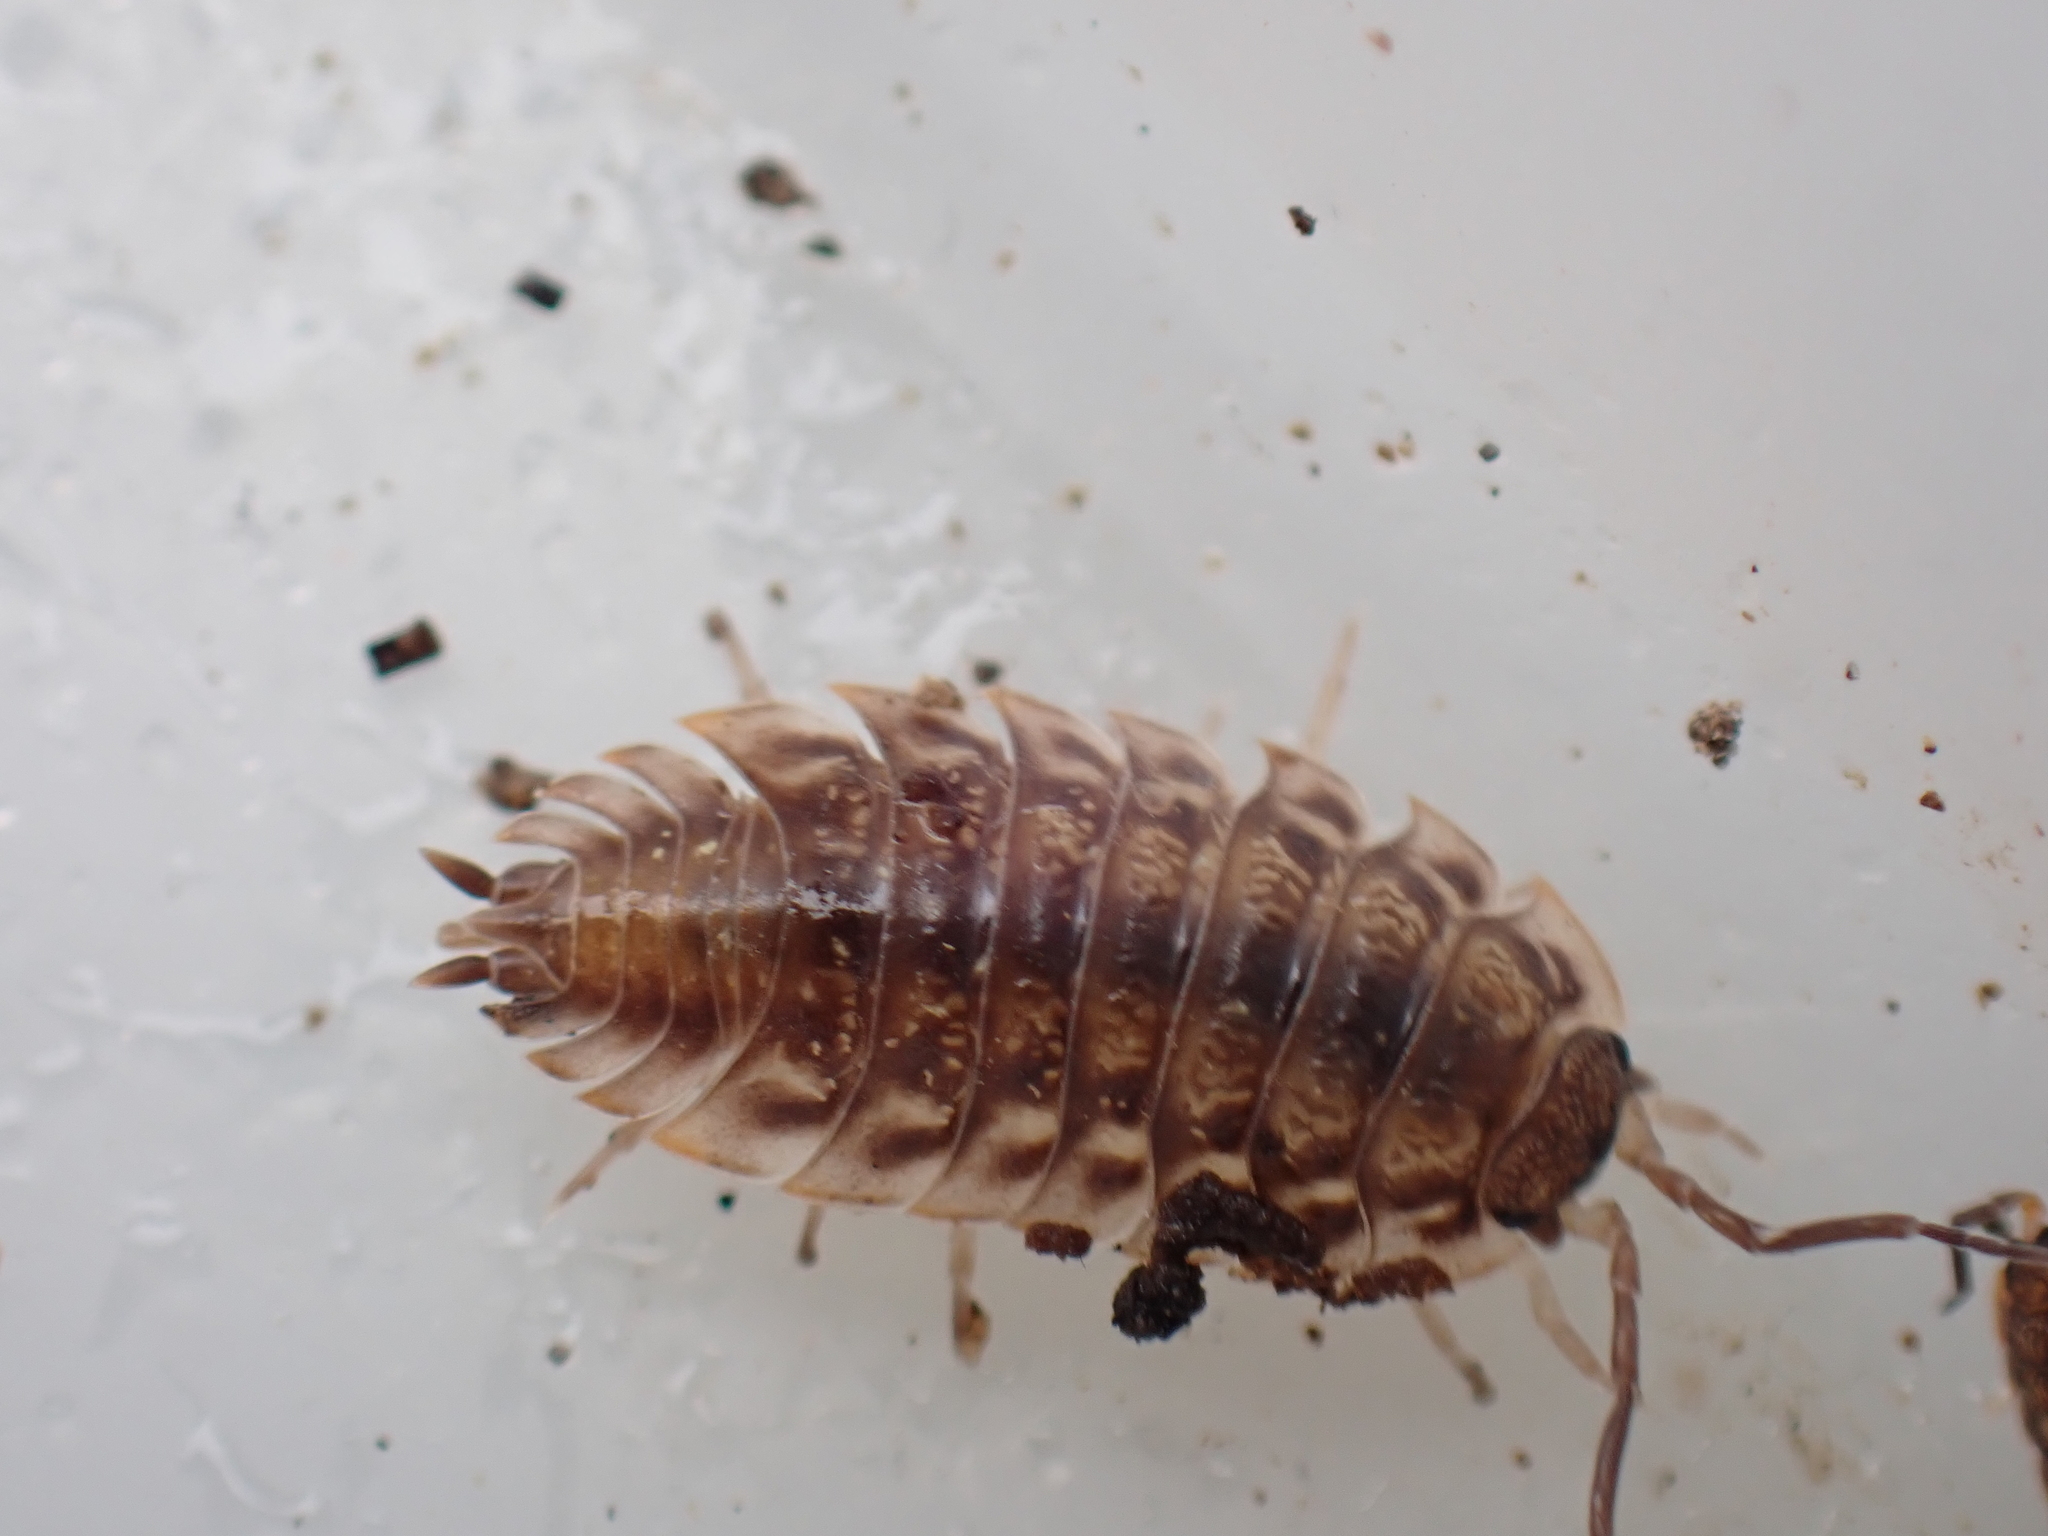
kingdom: Animalia
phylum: Arthropoda
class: Malacostraca
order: Isopoda
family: Oniscidae
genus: Oniscus
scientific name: Oniscus asellus
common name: Common shiny woodlouse
